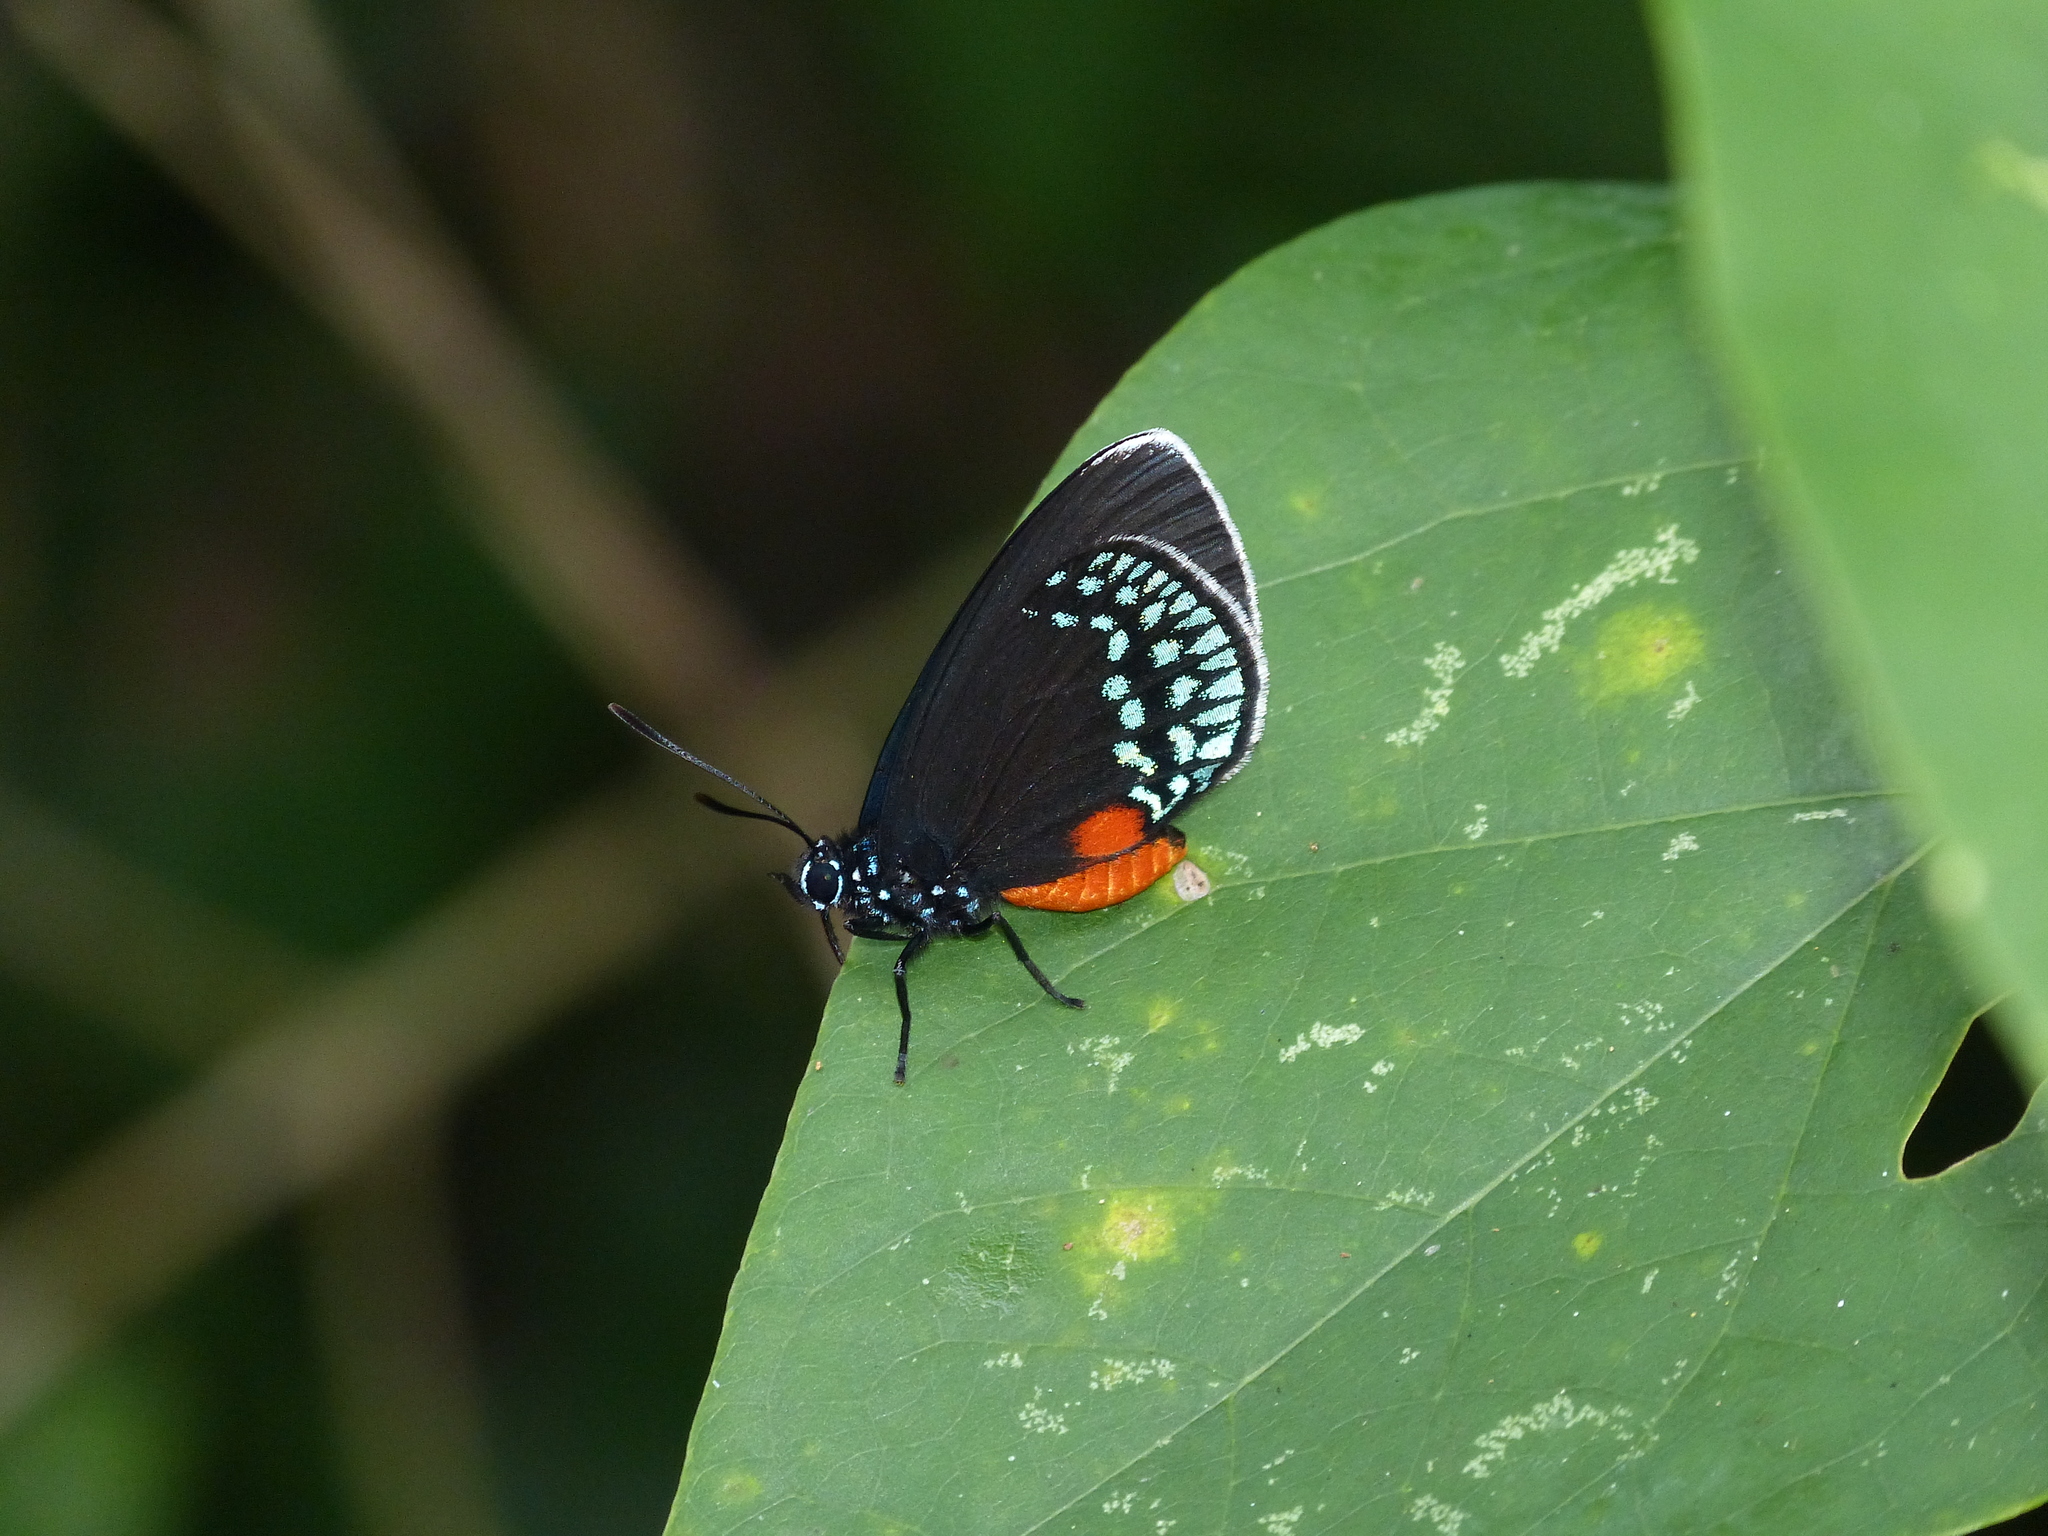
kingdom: Animalia
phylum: Arthropoda
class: Insecta
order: Lepidoptera
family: Lycaenidae
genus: Eumaeus
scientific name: Eumaeus toxea
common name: Mexican cycadian
